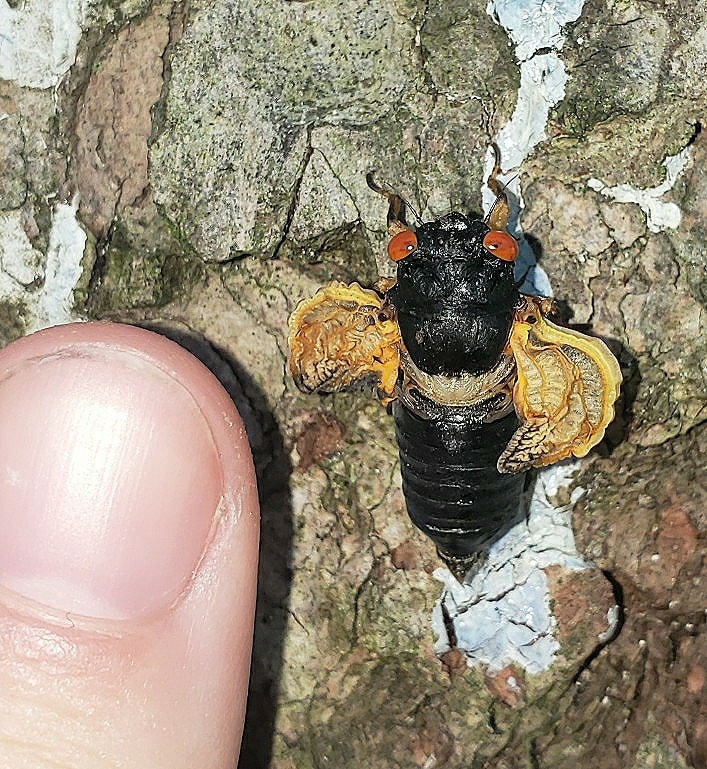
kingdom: Animalia
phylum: Arthropoda
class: Insecta
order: Hemiptera
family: Cicadidae
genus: Magicicada
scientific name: Magicicada
